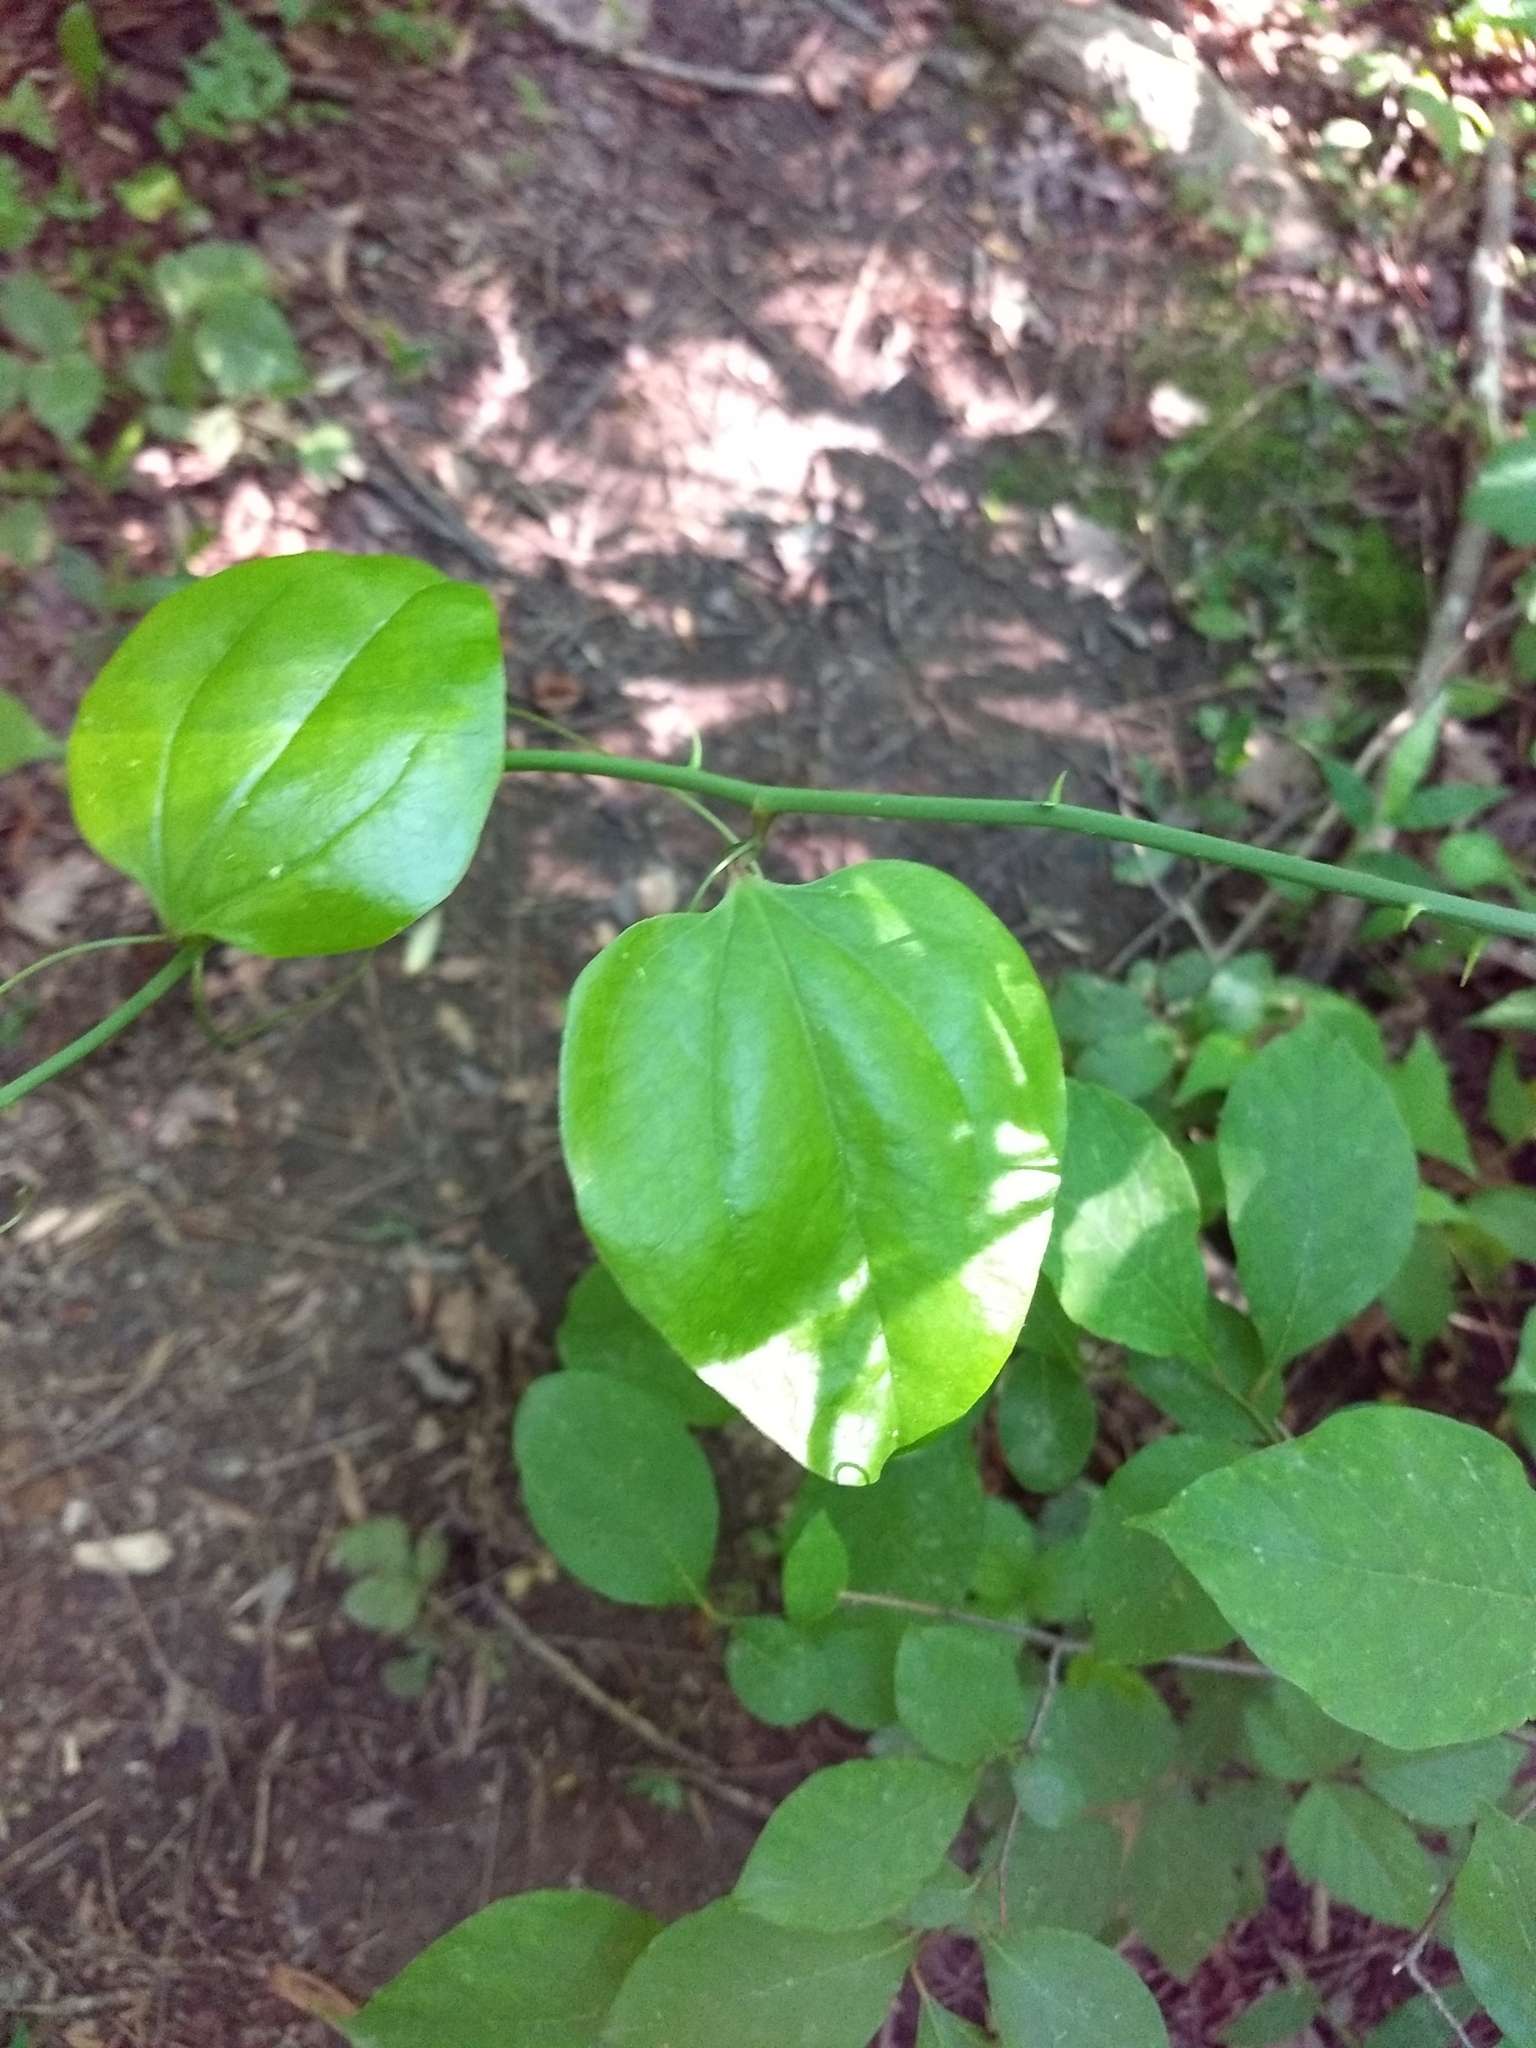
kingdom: Plantae
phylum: Tracheophyta
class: Liliopsida
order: Liliales
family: Smilacaceae
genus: Smilax
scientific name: Smilax rotundifolia
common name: Bullbriar
